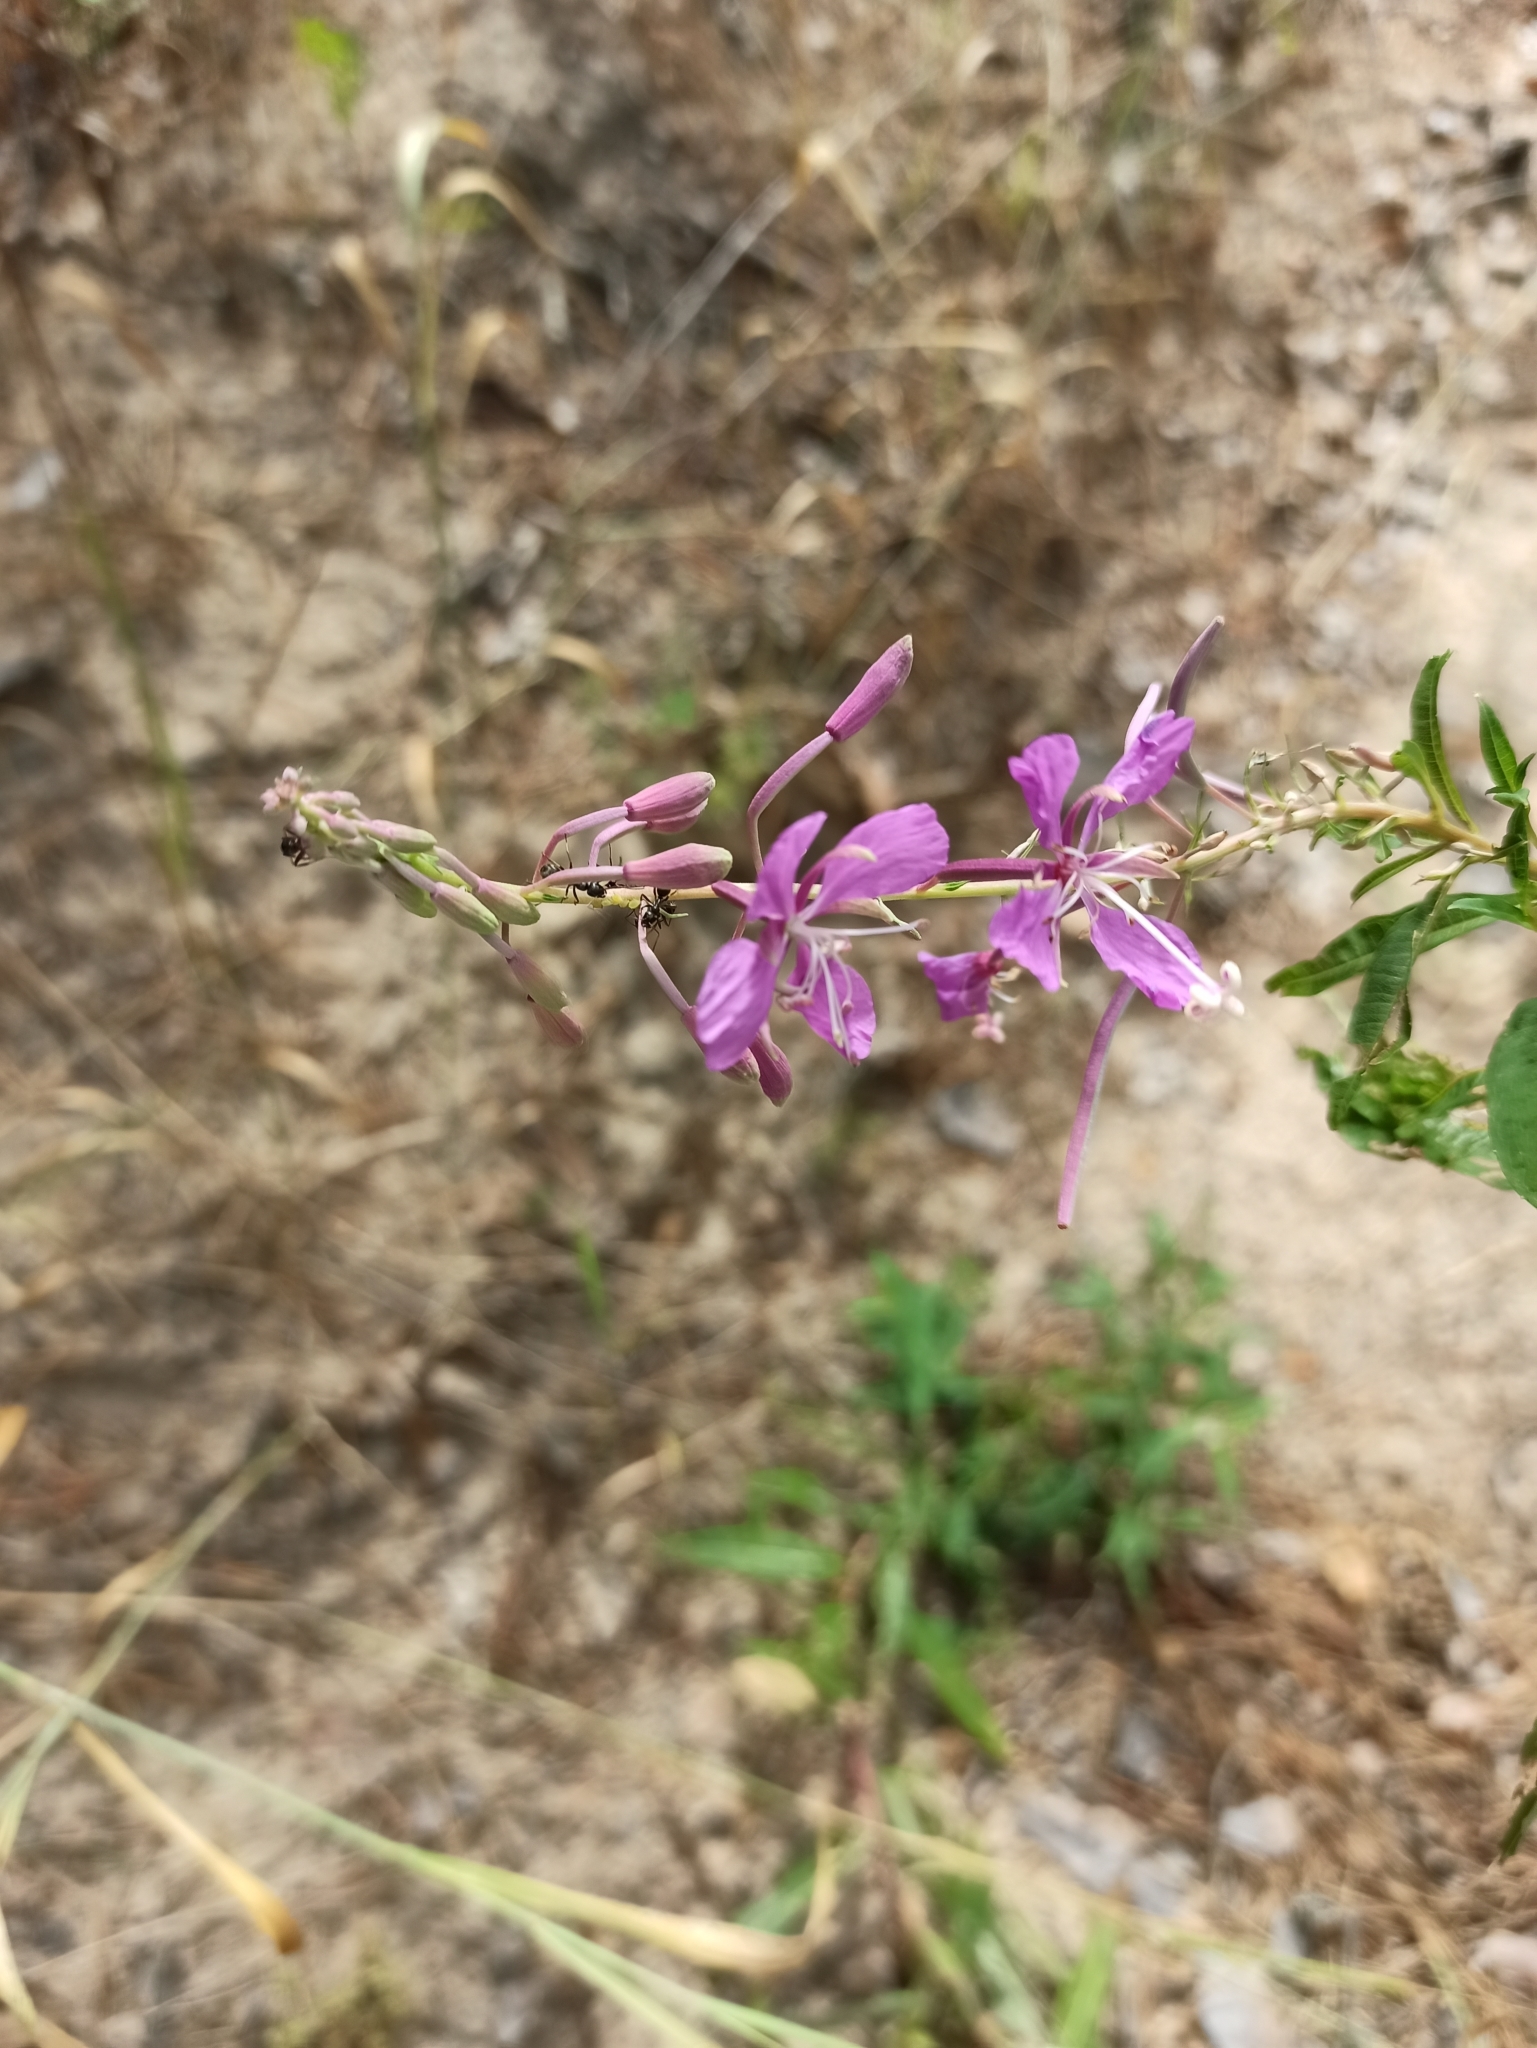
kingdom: Plantae
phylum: Tracheophyta
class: Magnoliopsida
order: Myrtales
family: Onagraceae
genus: Chamaenerion
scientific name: Chamaenerion angustifolium
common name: Fireweed
